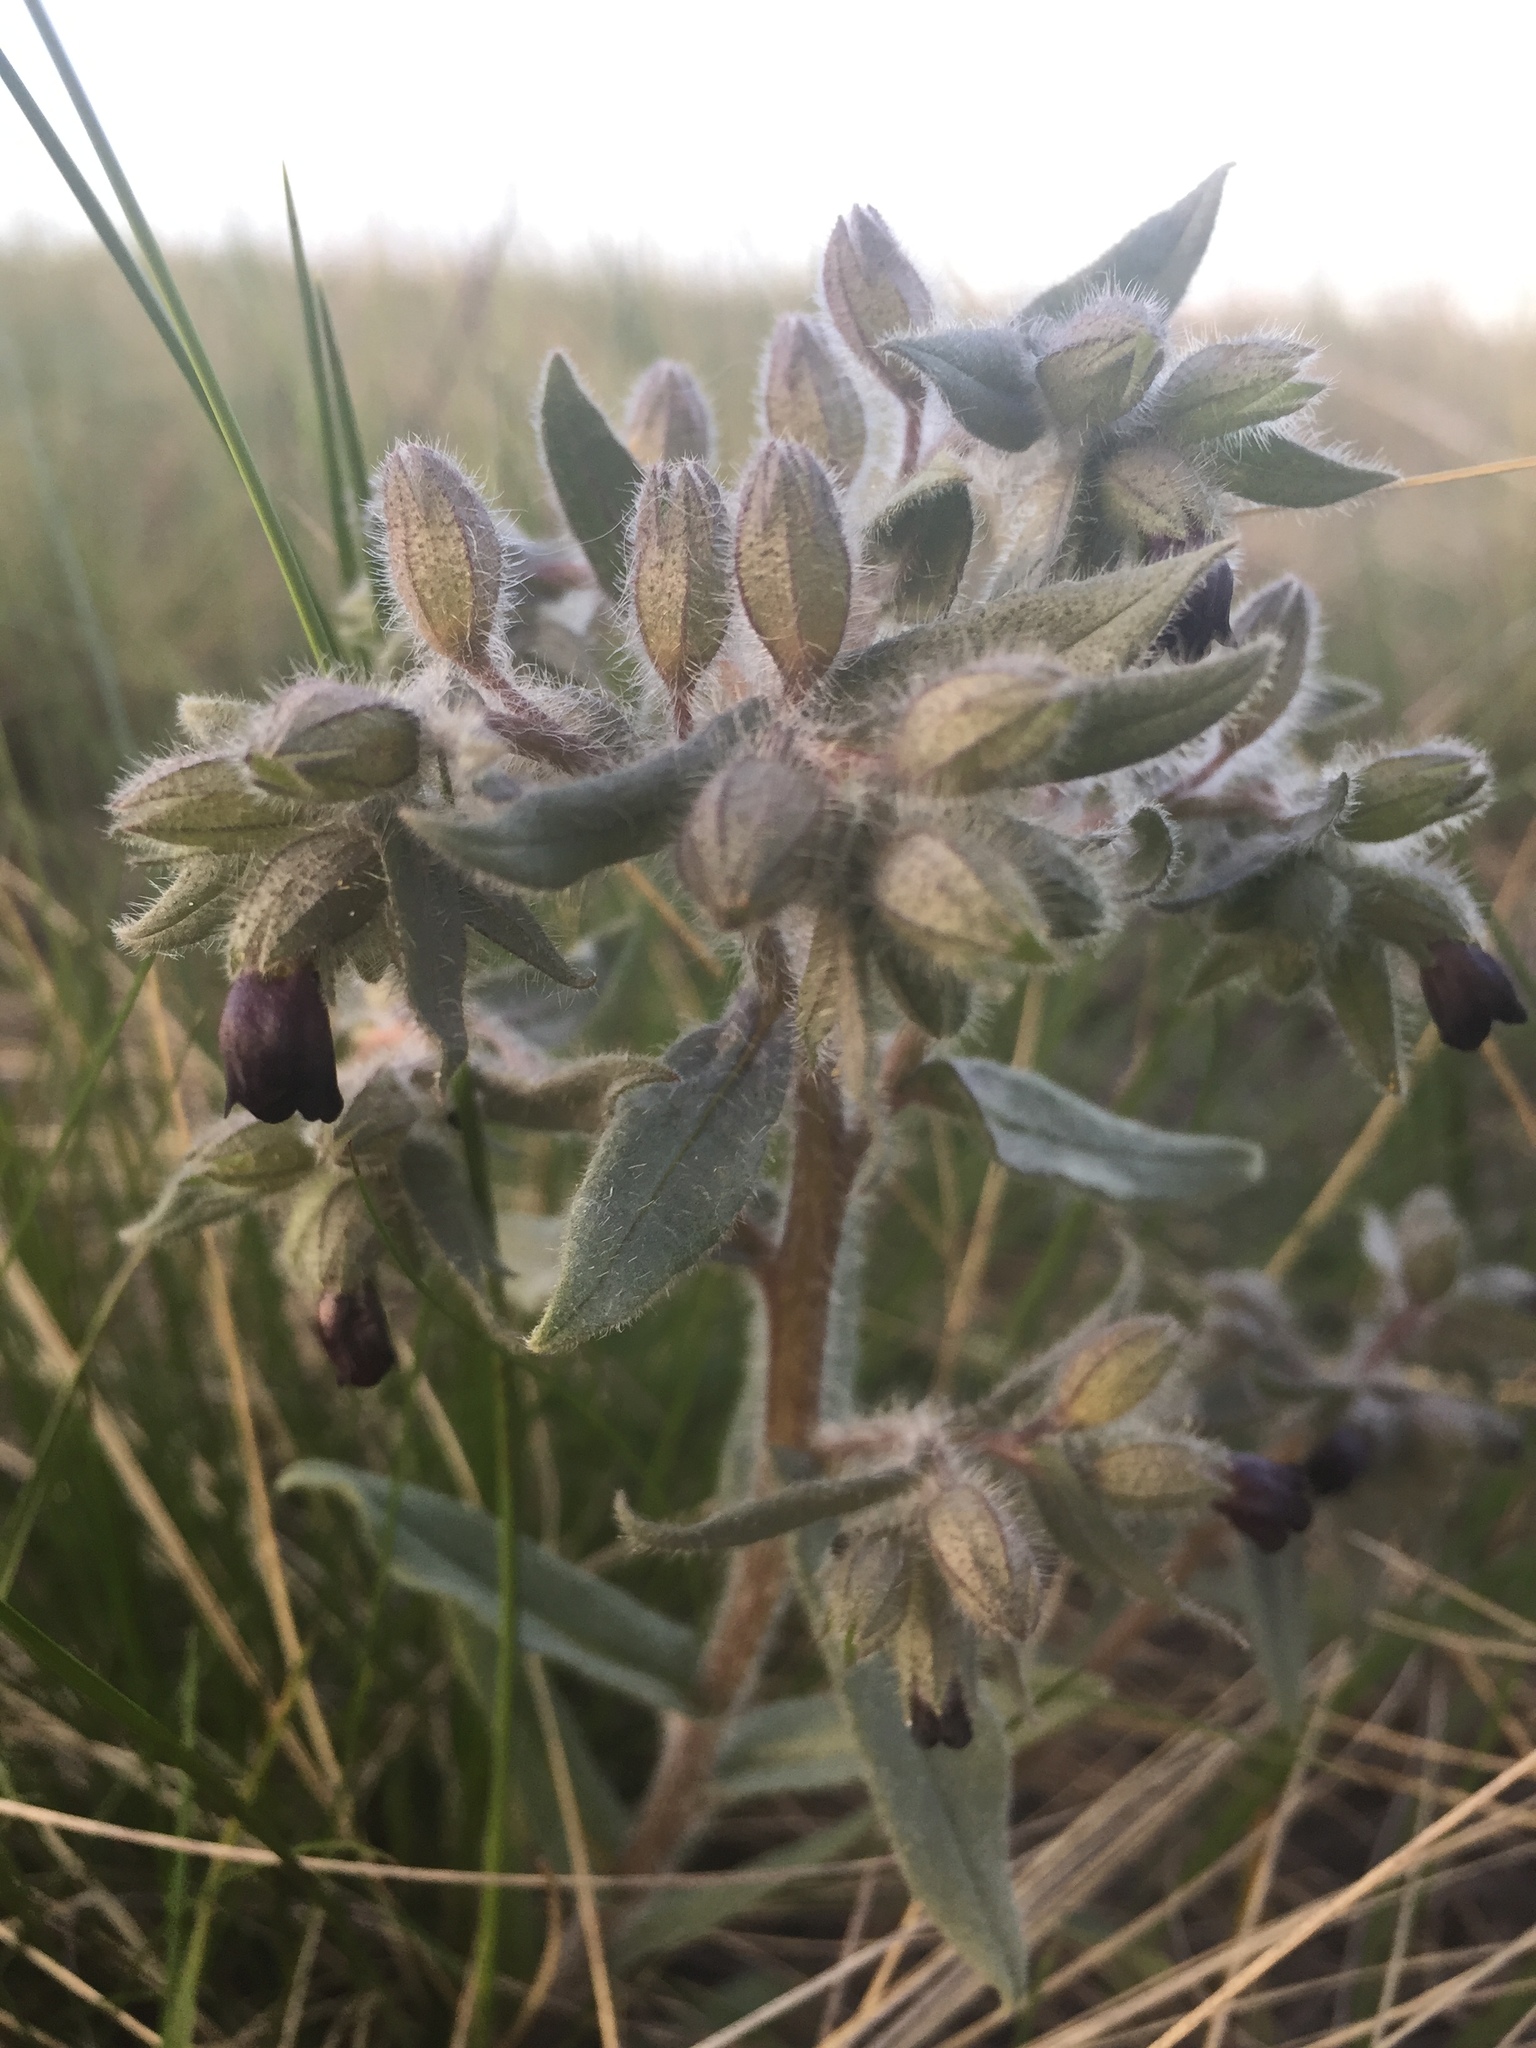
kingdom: Plantae
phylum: Tracheophyta
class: Magnoliopsida
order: Boraginales
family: Boraginaceae
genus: Nonea
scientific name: Nonea pulla
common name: Brown nonea
